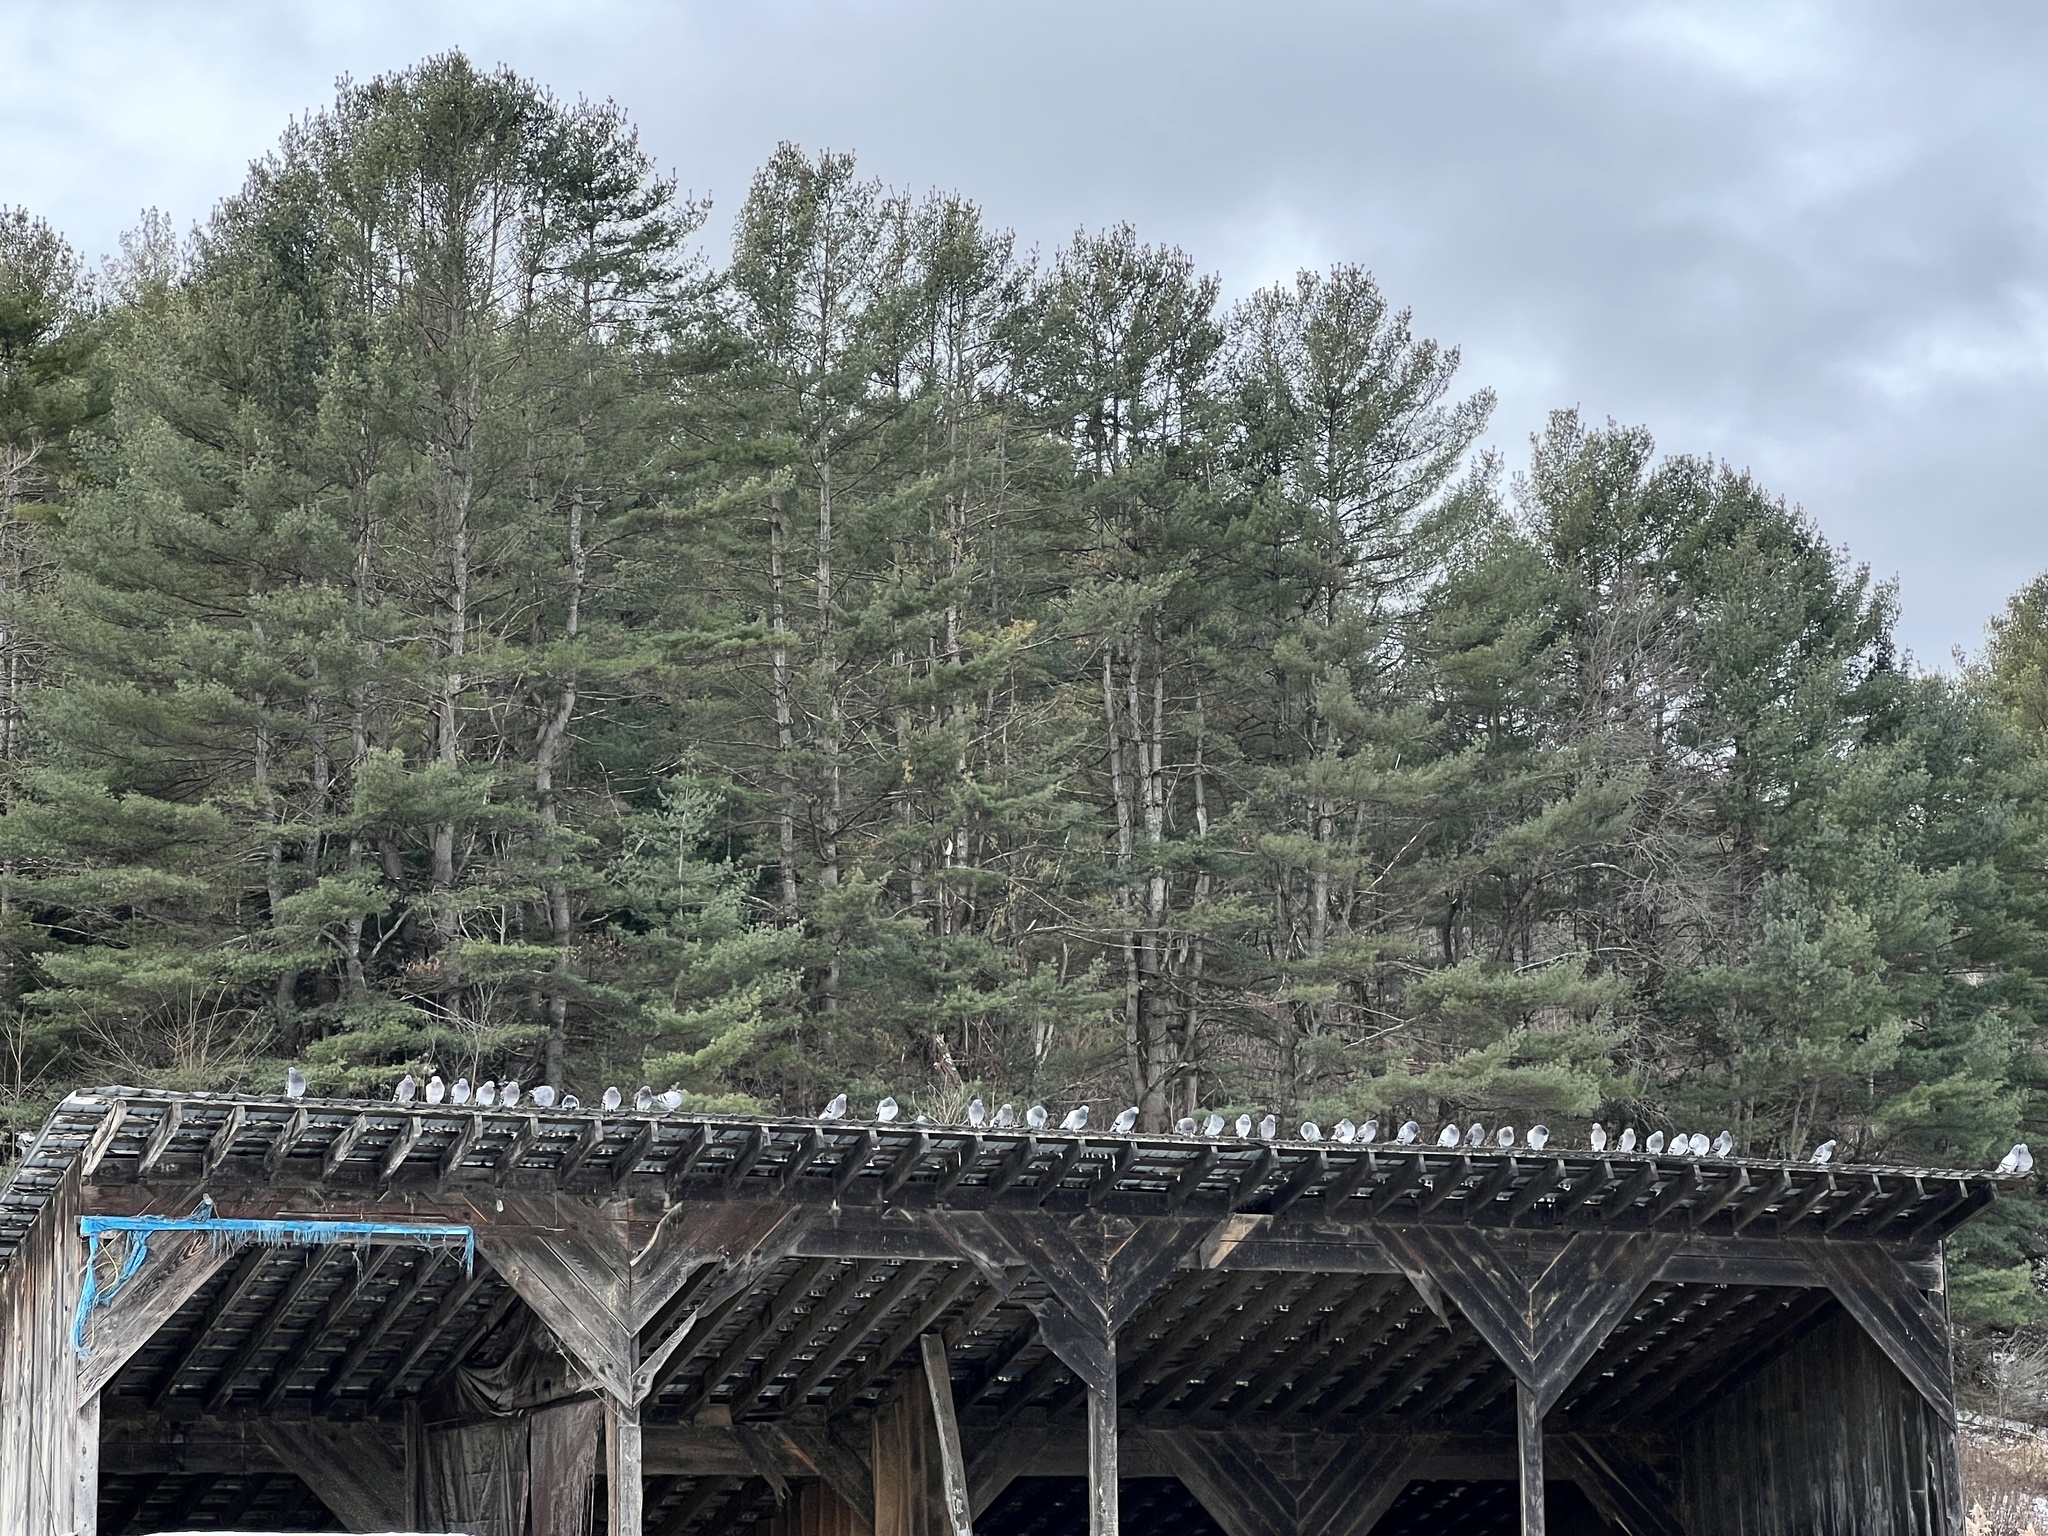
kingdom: Animalia
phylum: Chordata
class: Aves
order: Columbiformes
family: Columbidae
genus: Columba
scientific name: Columba livia
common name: Rock pigeon
